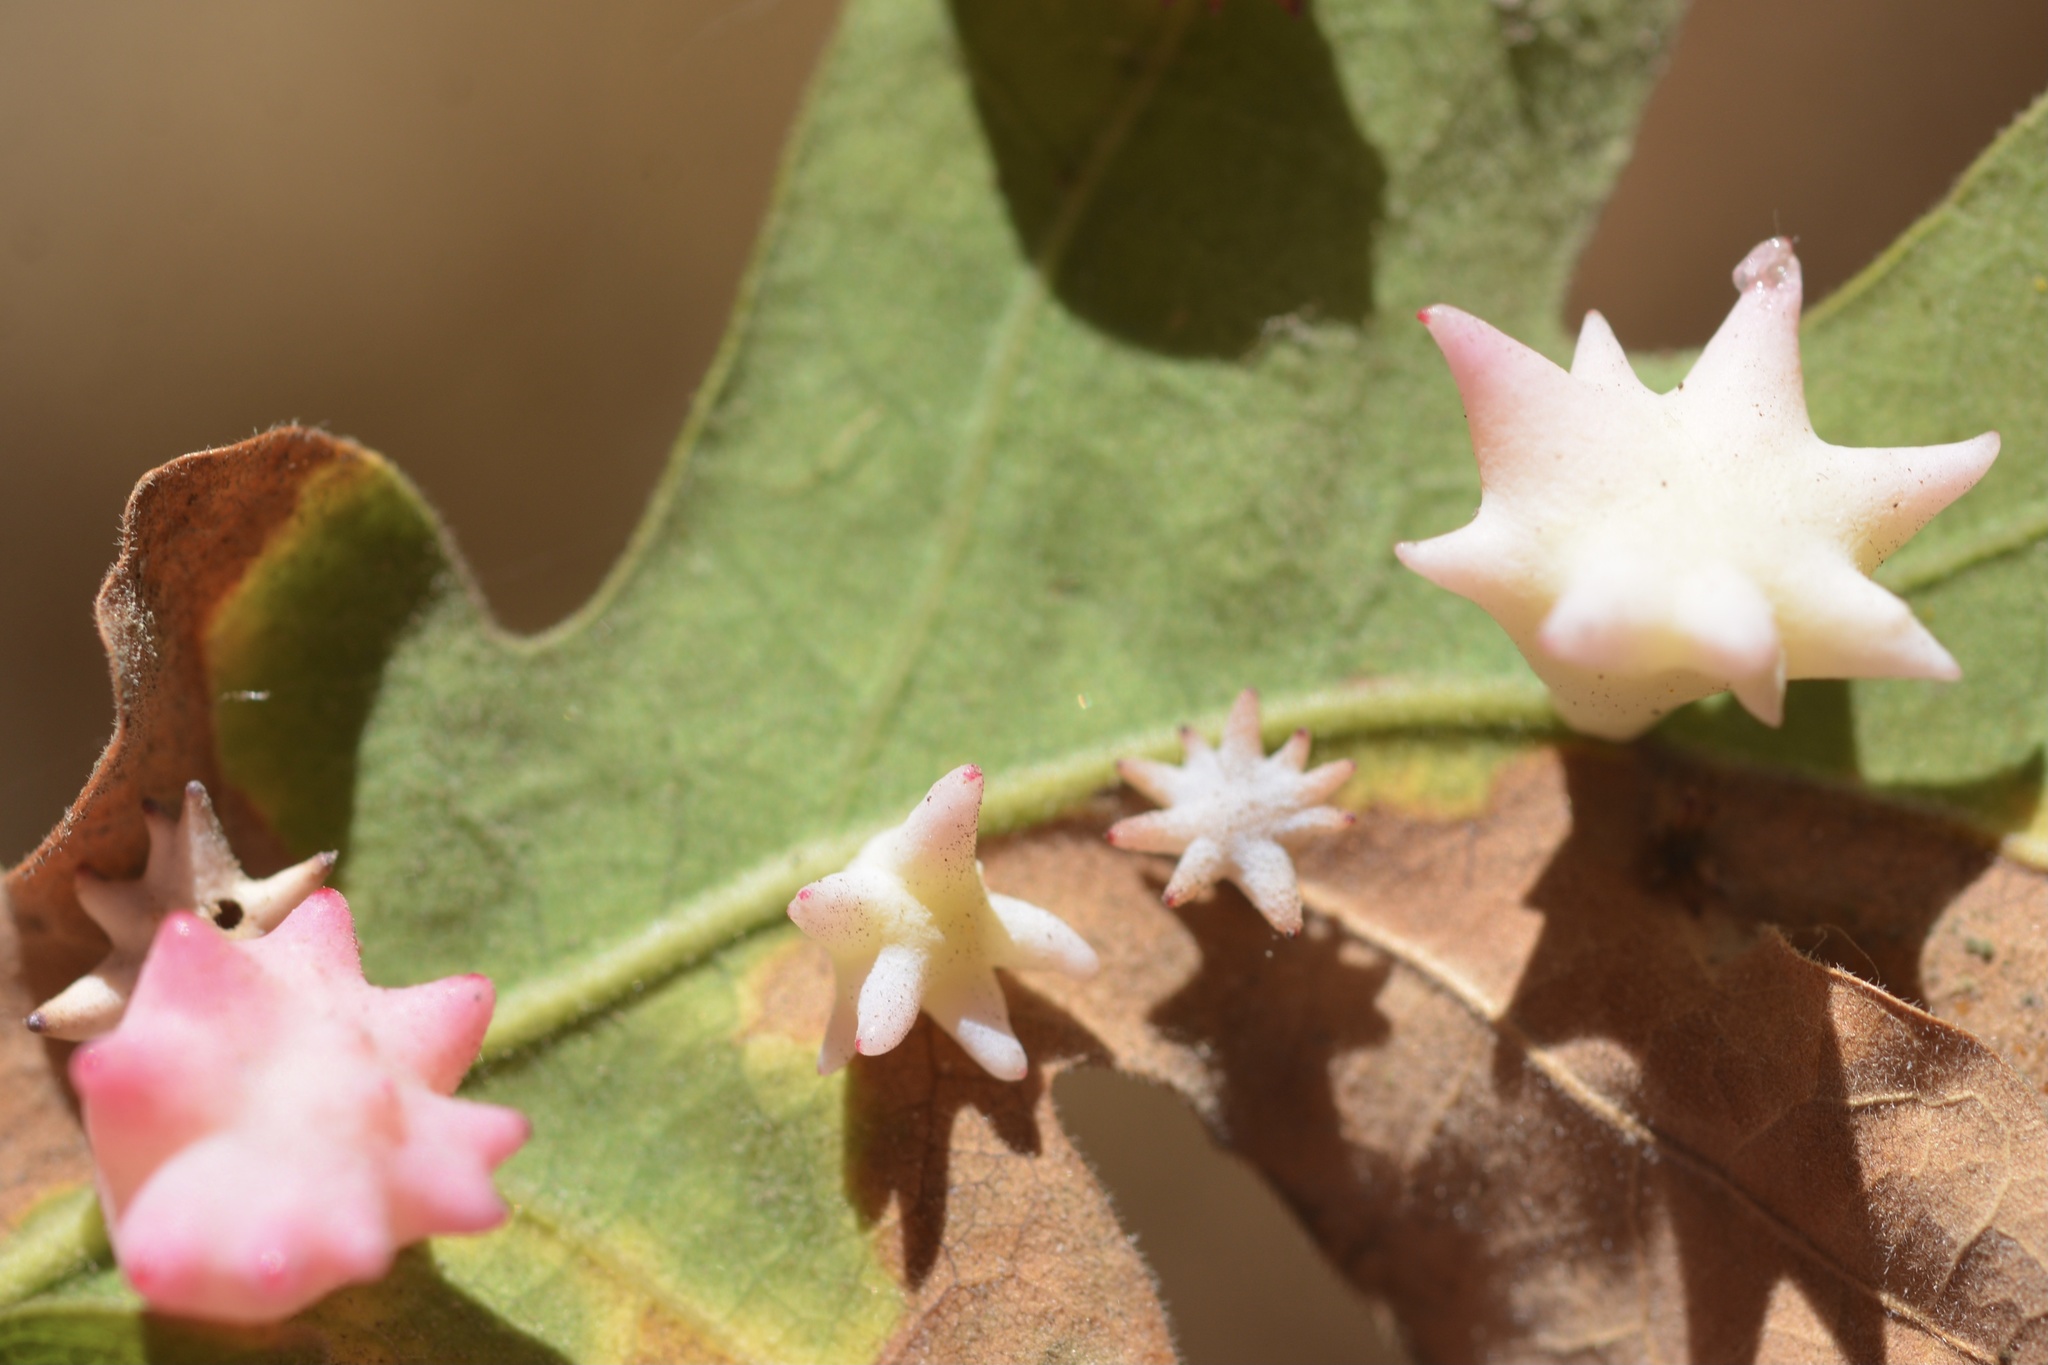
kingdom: Animalia
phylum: Arthropoda
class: Insecta
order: Hymenoptera
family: Cynipidae
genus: Cynips
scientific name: Cynips douglasi
